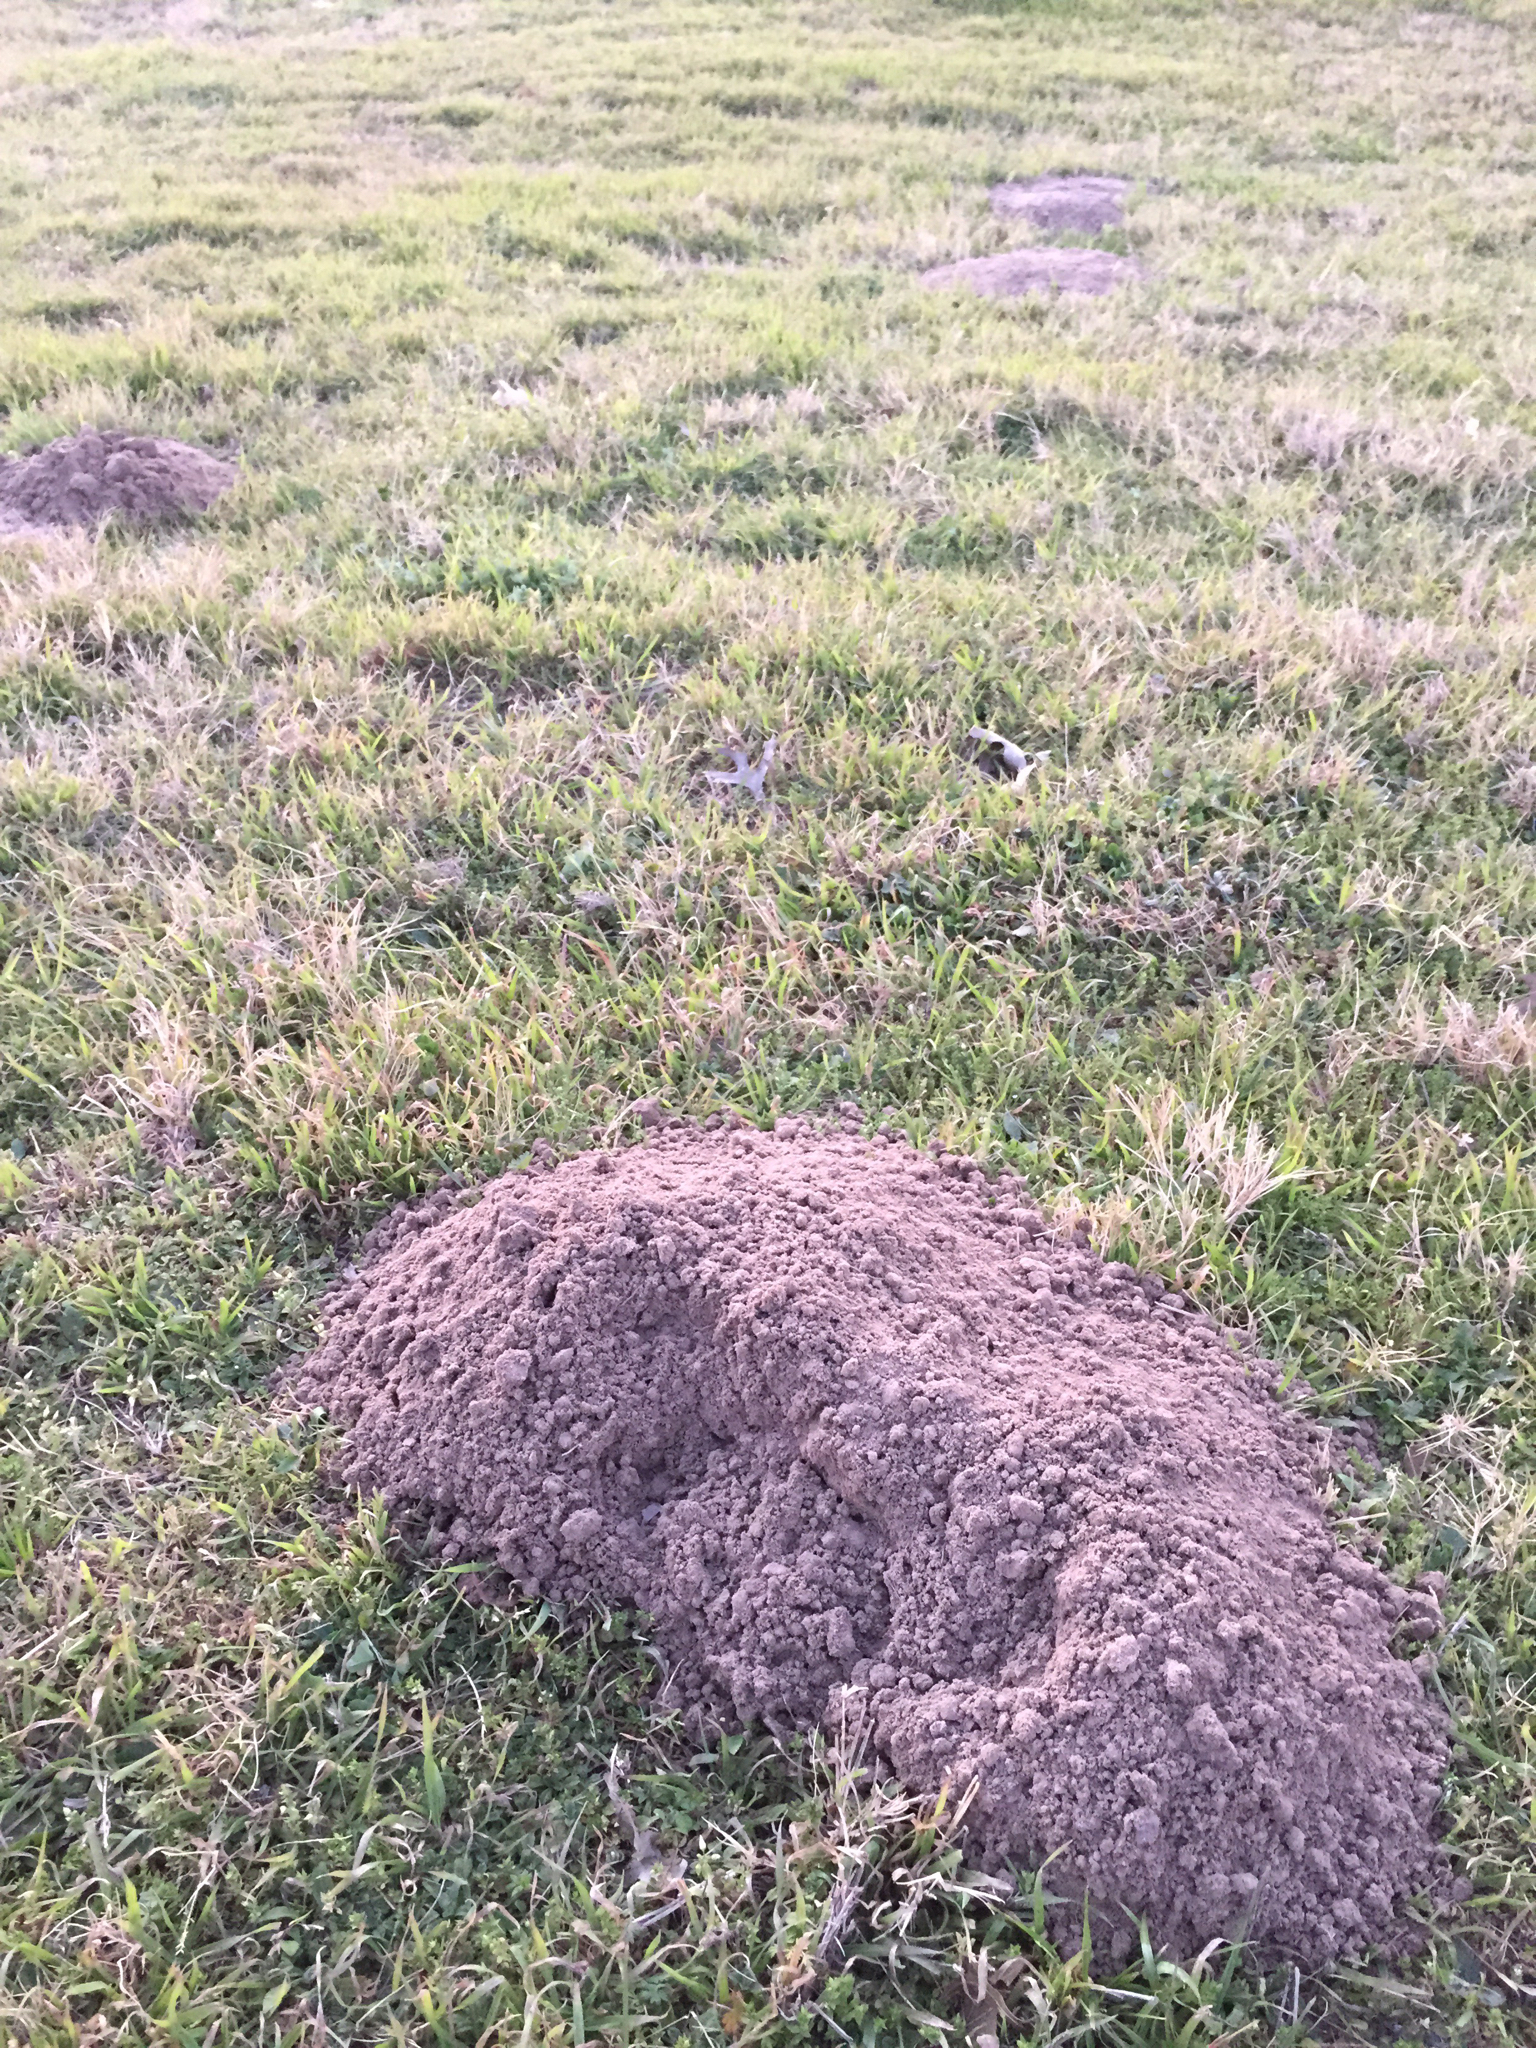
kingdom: Animalia
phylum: Chordata
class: Mammalia
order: Rodentia
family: Geomyidae
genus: Geomys
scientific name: Geomys breviceps
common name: Baird's pocket gopher
